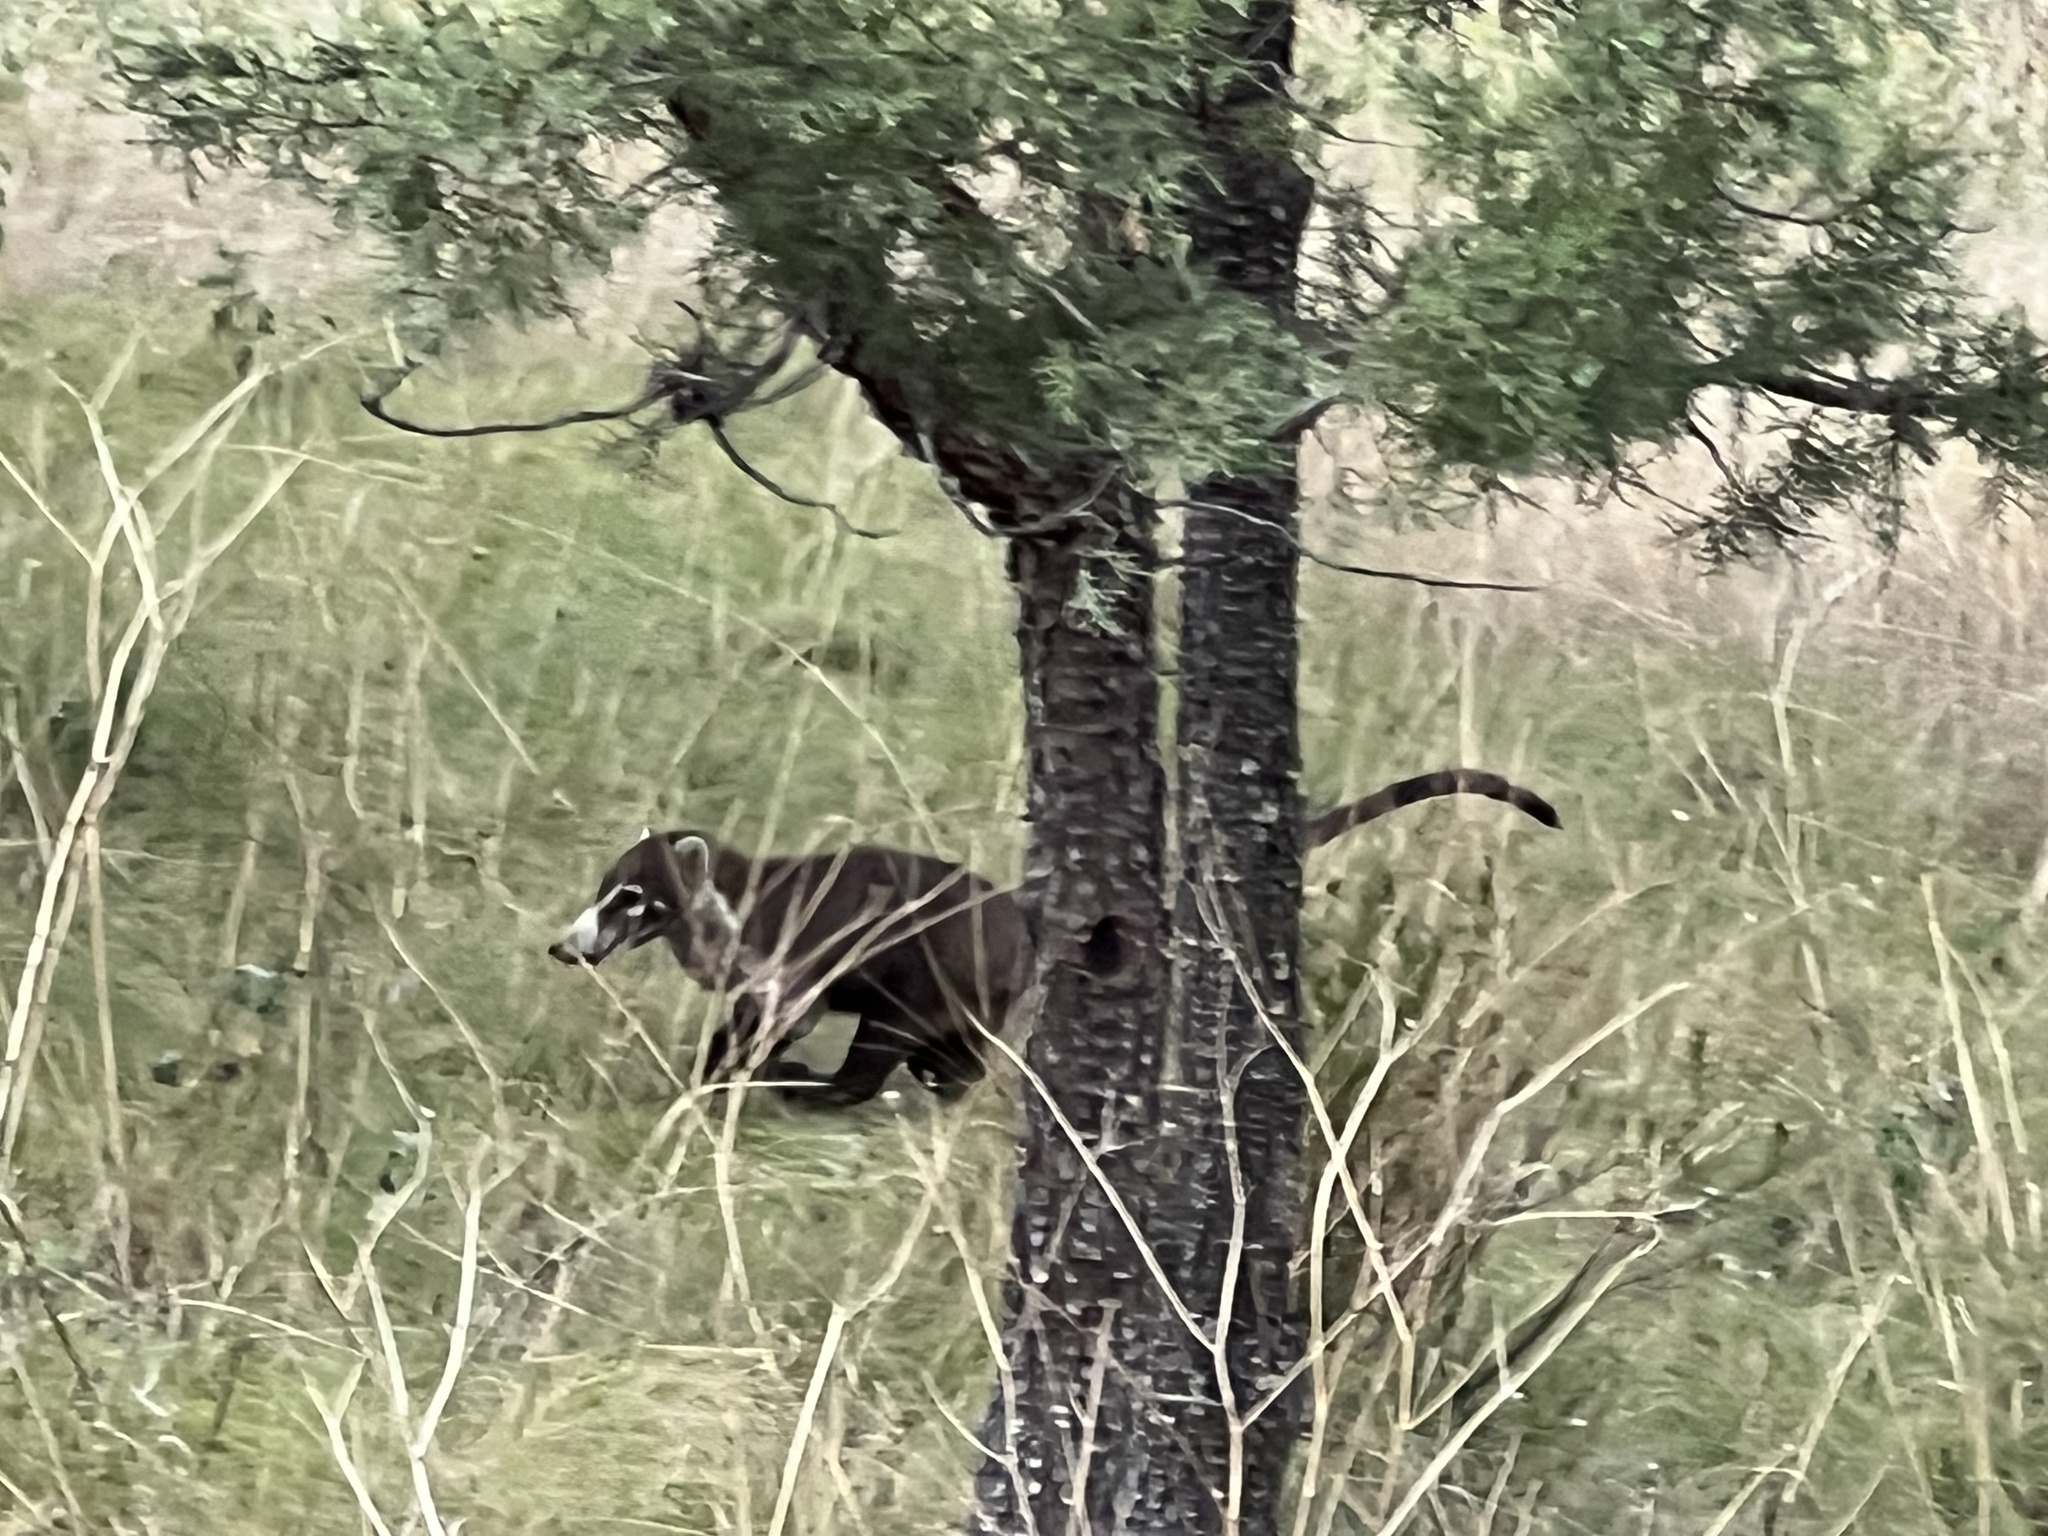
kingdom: Animalia
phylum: Chordata
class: Mammalia
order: Carnivora
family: Procyonidae
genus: Nasua
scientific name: Nasua narica
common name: White-nosed coati
